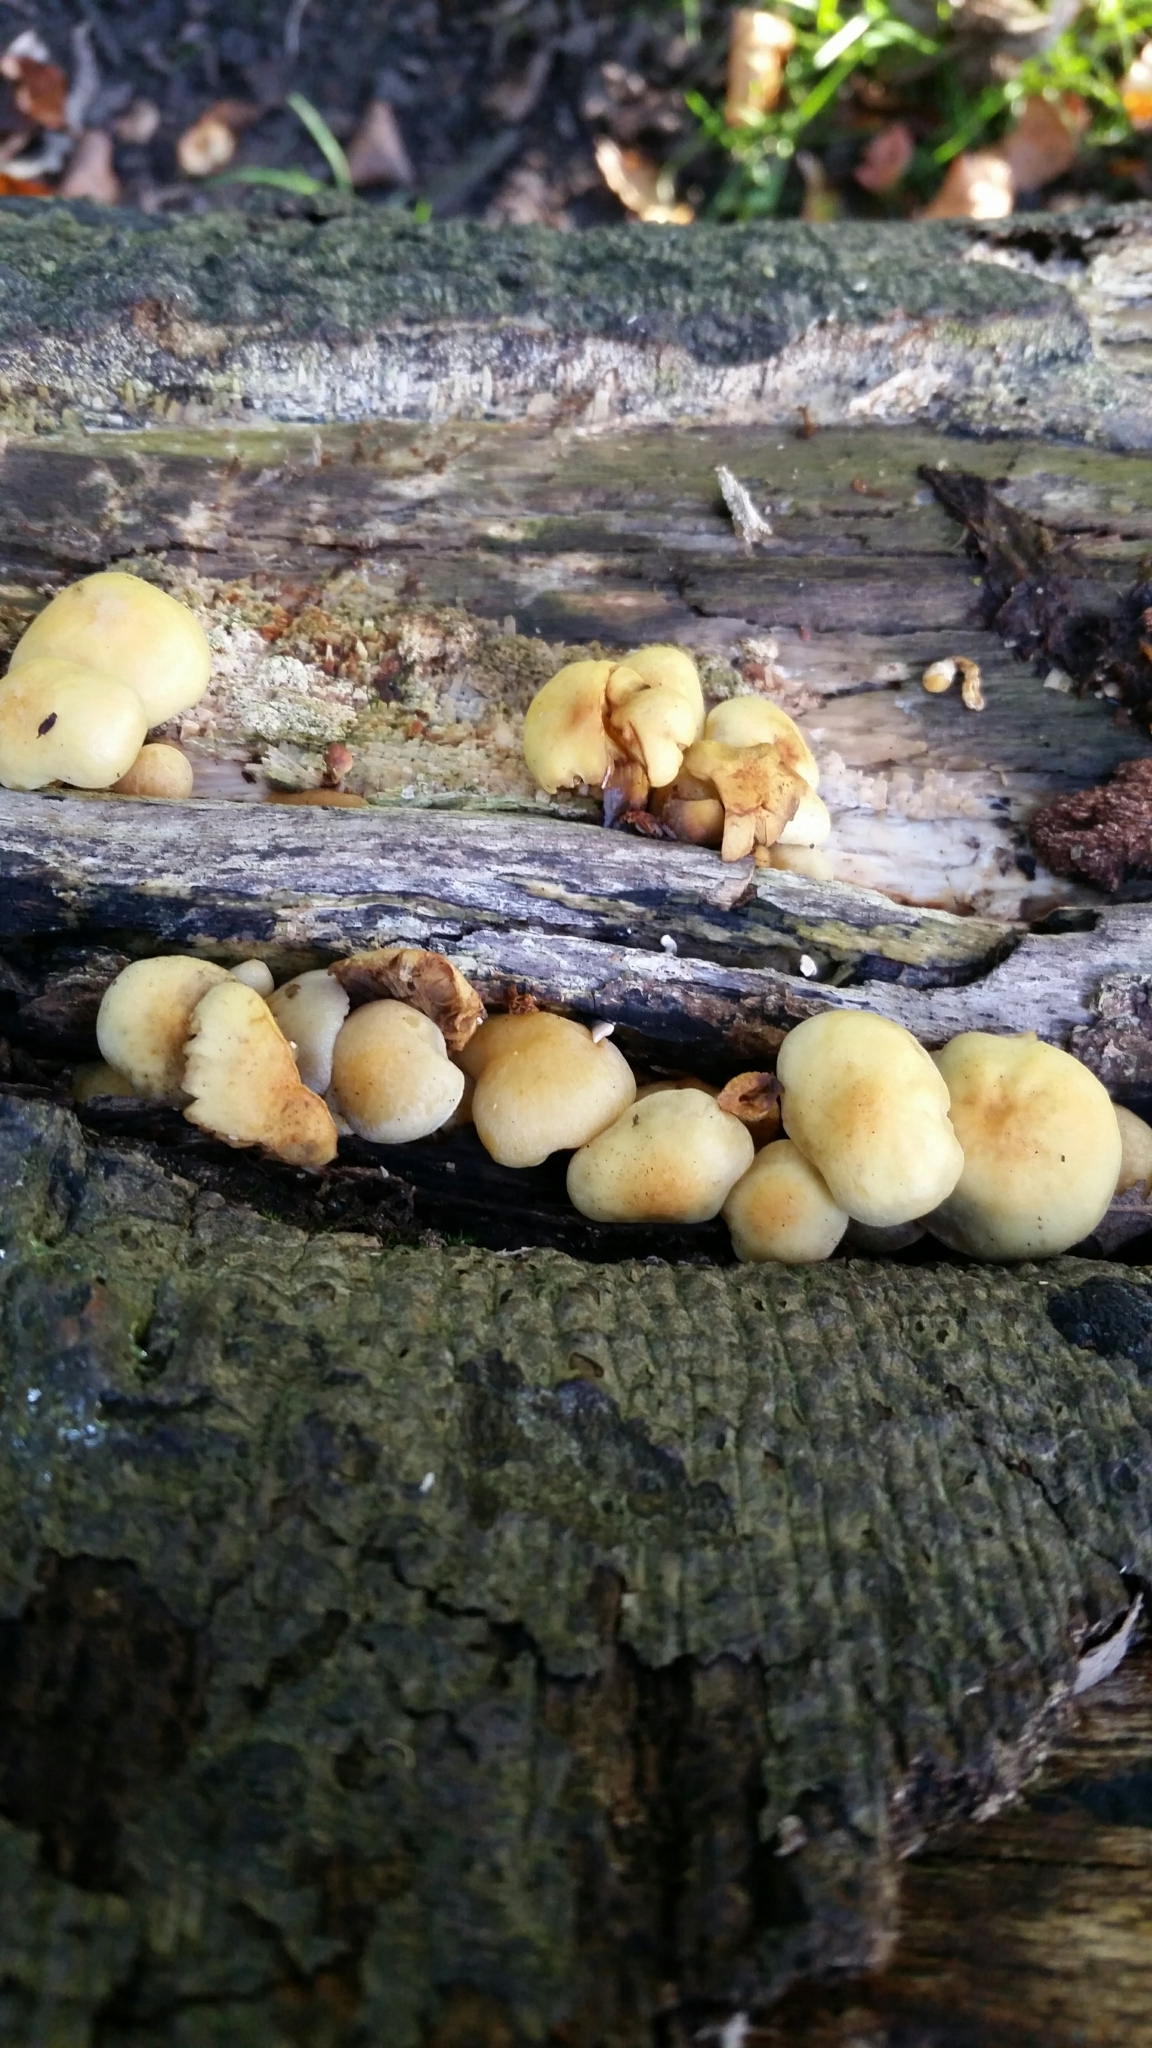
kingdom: Fungi
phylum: Basidiomycota
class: Agaricomycetes
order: Agaricales
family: Strophariaceae
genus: Hypholoma
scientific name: Hypholoma fasciculare
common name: Sulphur tuft
